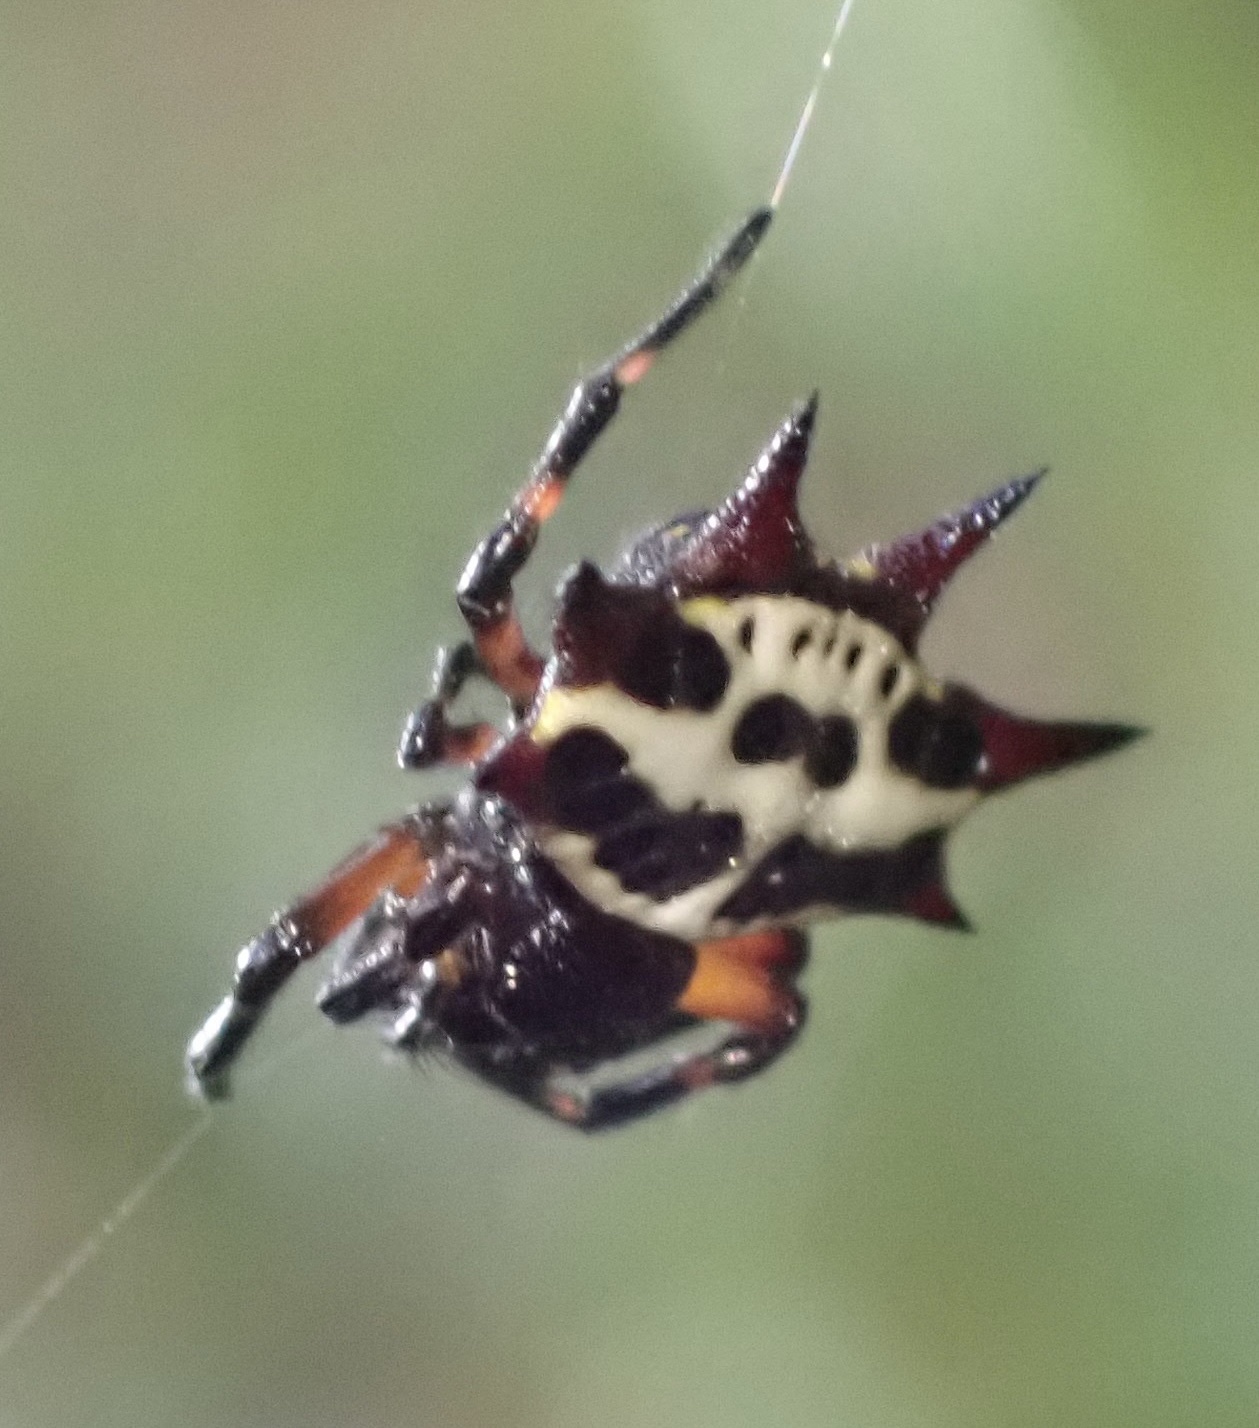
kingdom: Animalia
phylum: Arthropoda
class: Arachnida
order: Araneae
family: Araneidae
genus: Gasteracantha
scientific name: Gasteracantha fasciata
